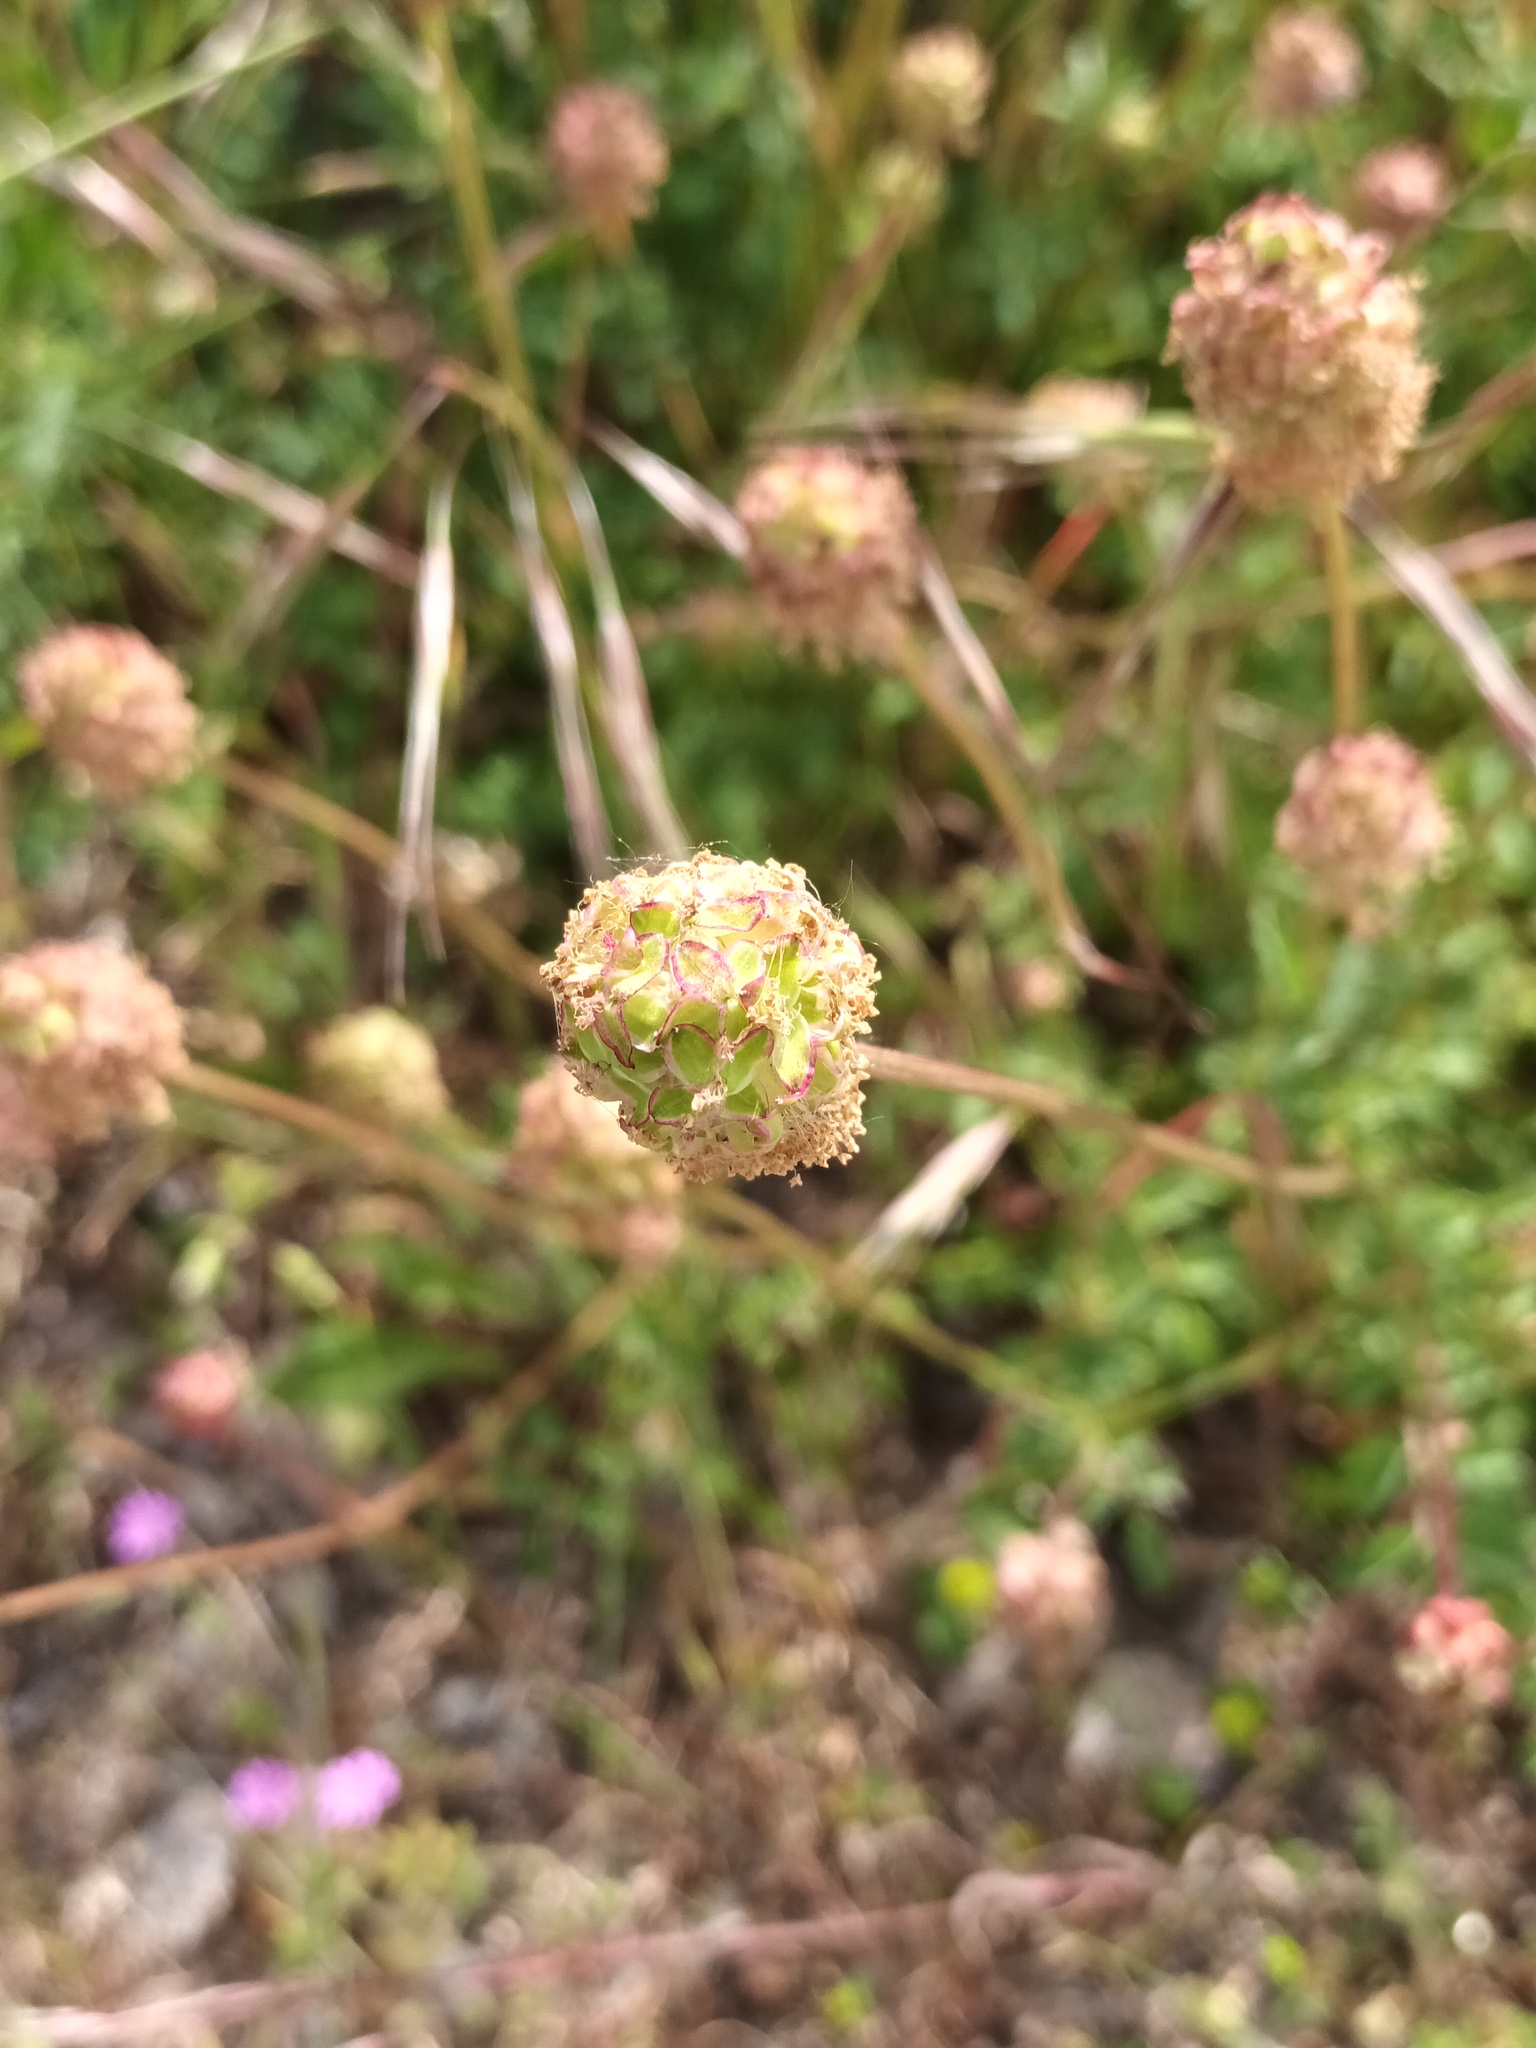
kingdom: Plantae
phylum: Tracheophyta
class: Magnoliopsida
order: Rosales
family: Rosaceae
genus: Poterium
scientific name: Poterium sanguisorba
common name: Salad burnet
